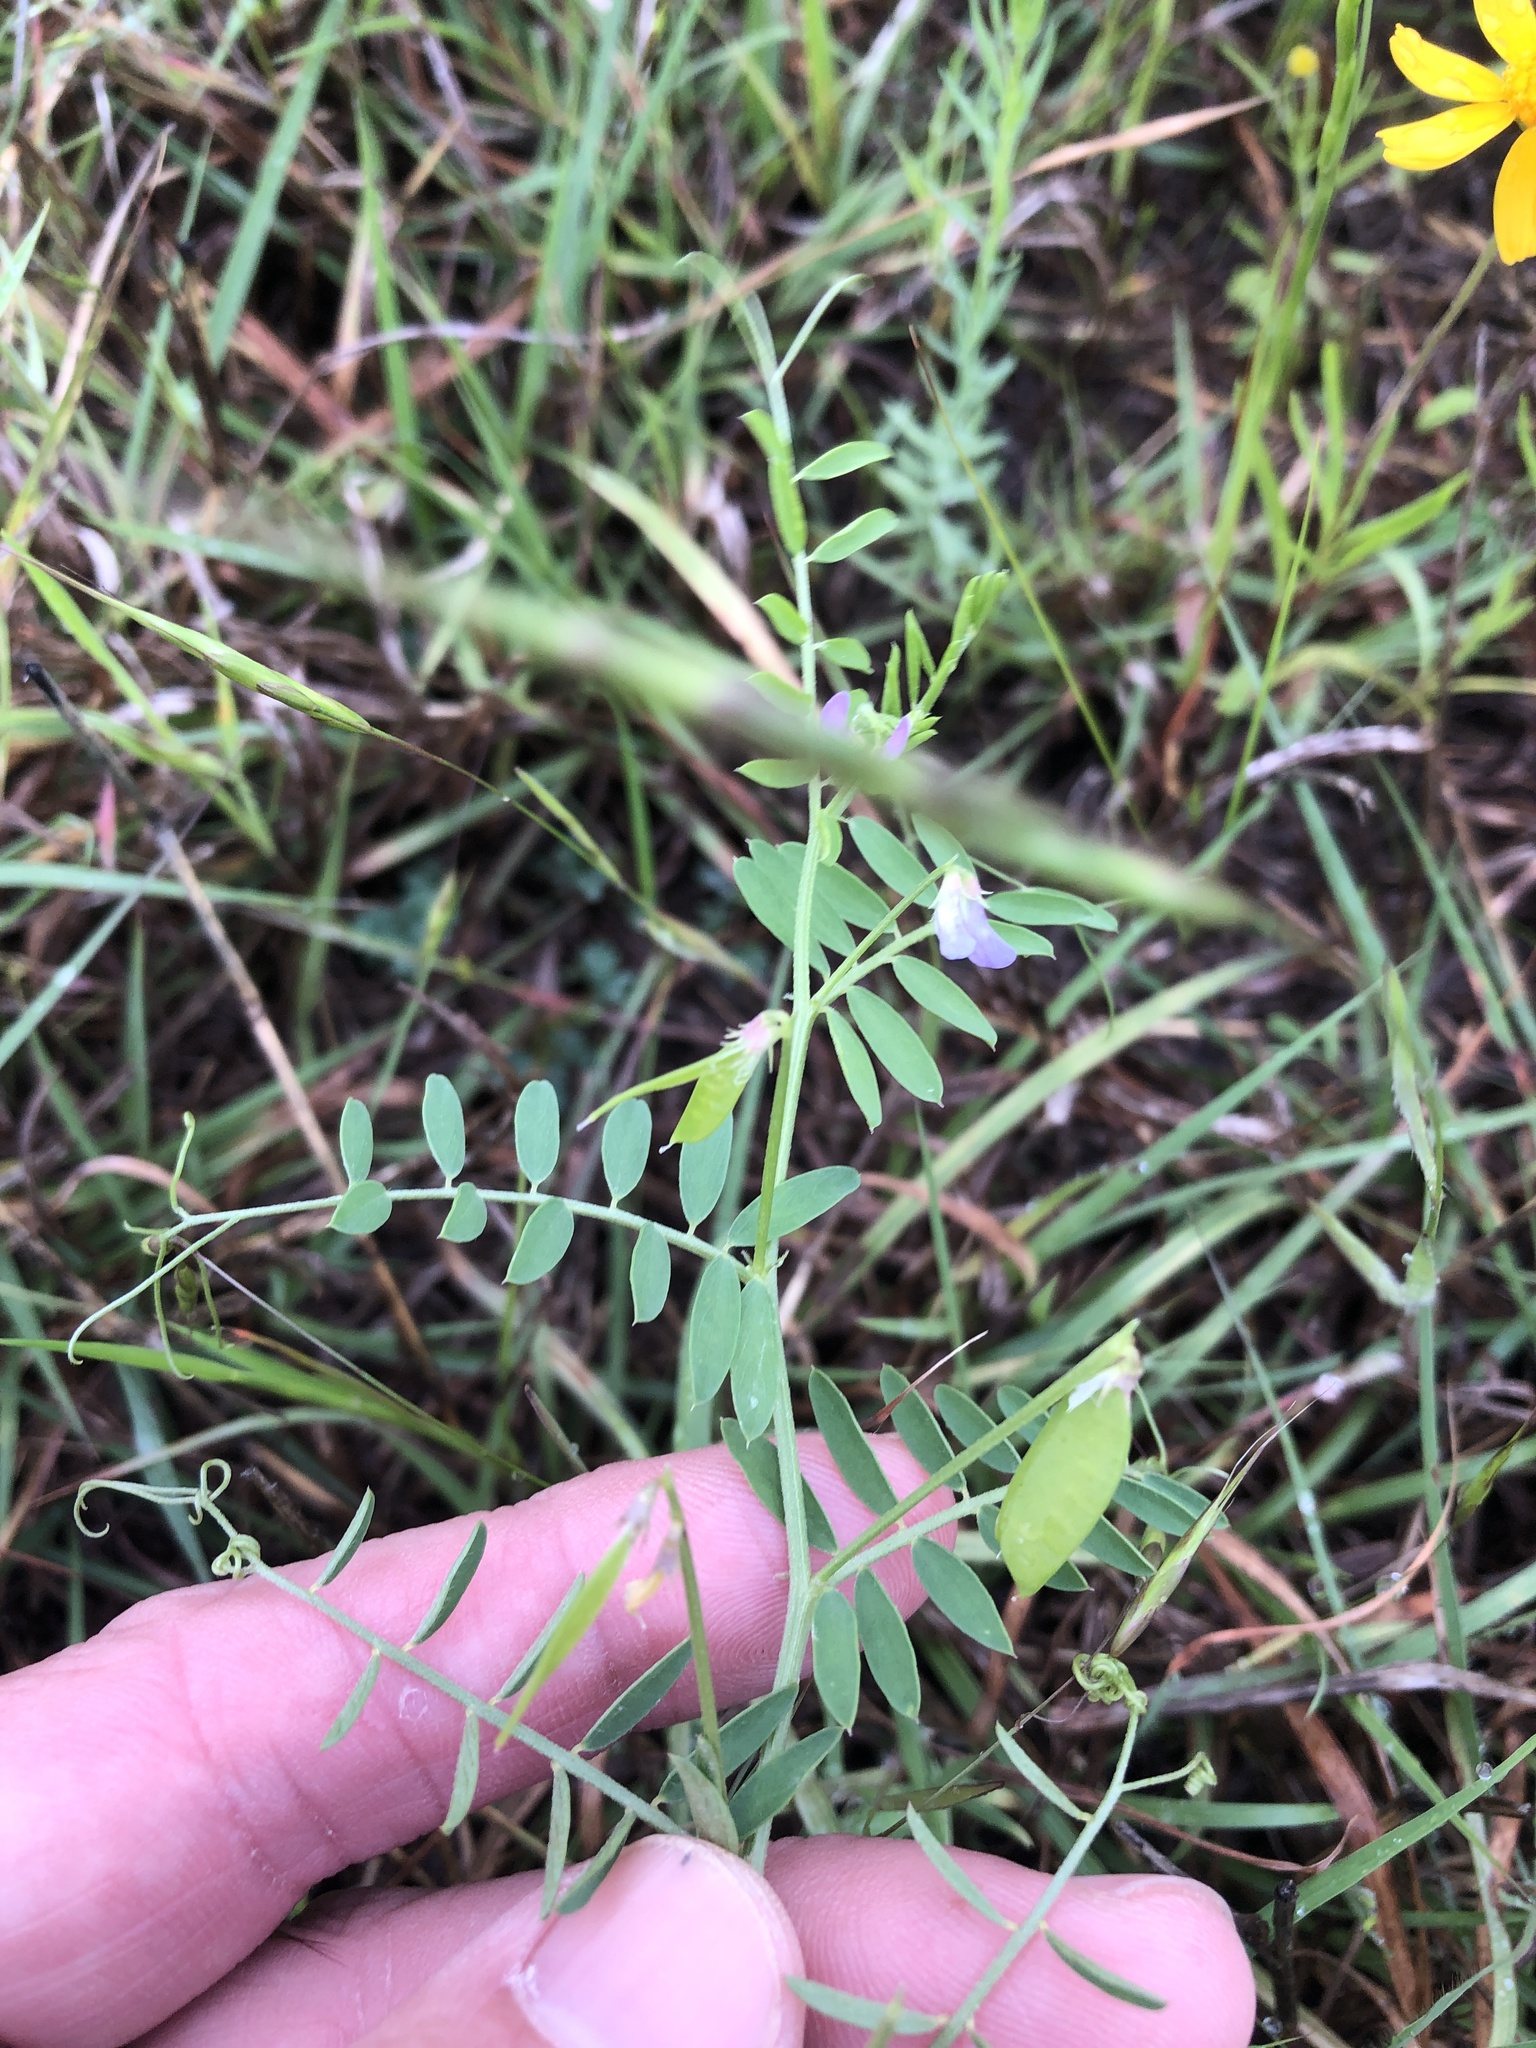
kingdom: Plantae
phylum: Tracheophyta
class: Magnoliopsida
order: Fabales
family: Fabaceae
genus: Vicia
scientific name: Vicia ludoviciana
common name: Louisiana vetch
